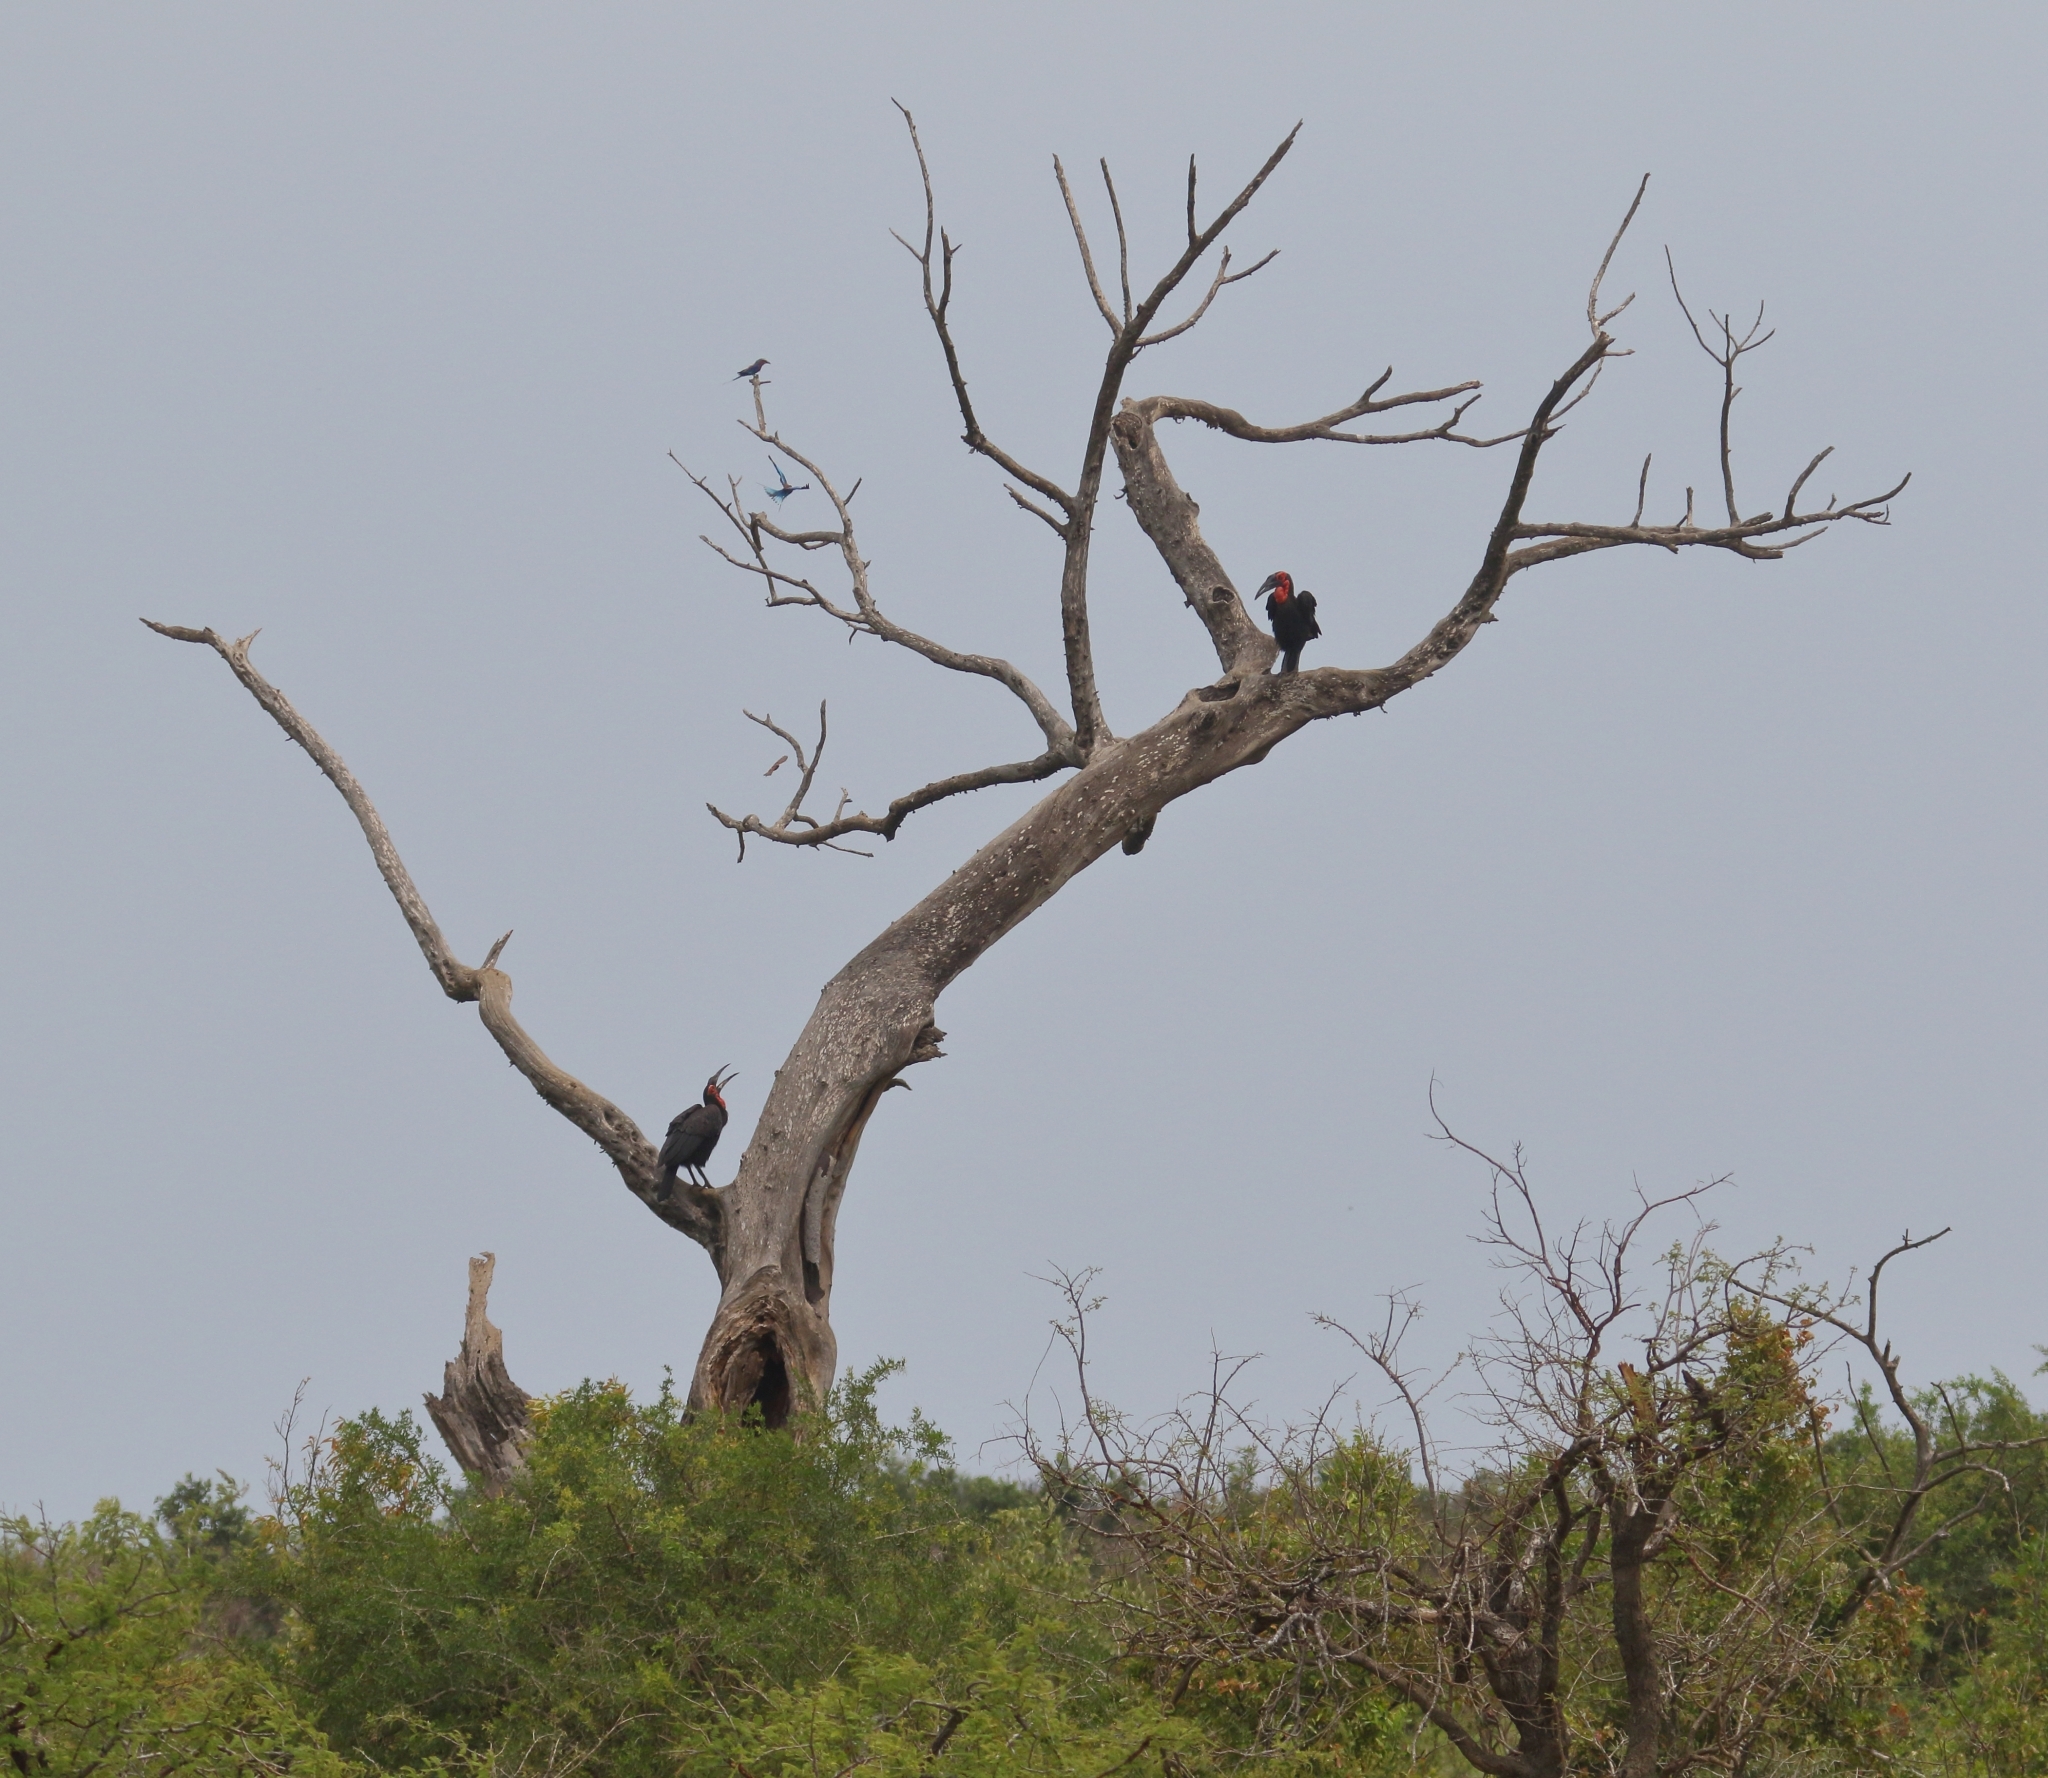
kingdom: Animalia
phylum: Chordata
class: Aves
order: Bucerotiformes
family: Bucorvidae
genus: Bucorvus
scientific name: Bucorvus leadbeateri
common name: Southern ground-hornbill
